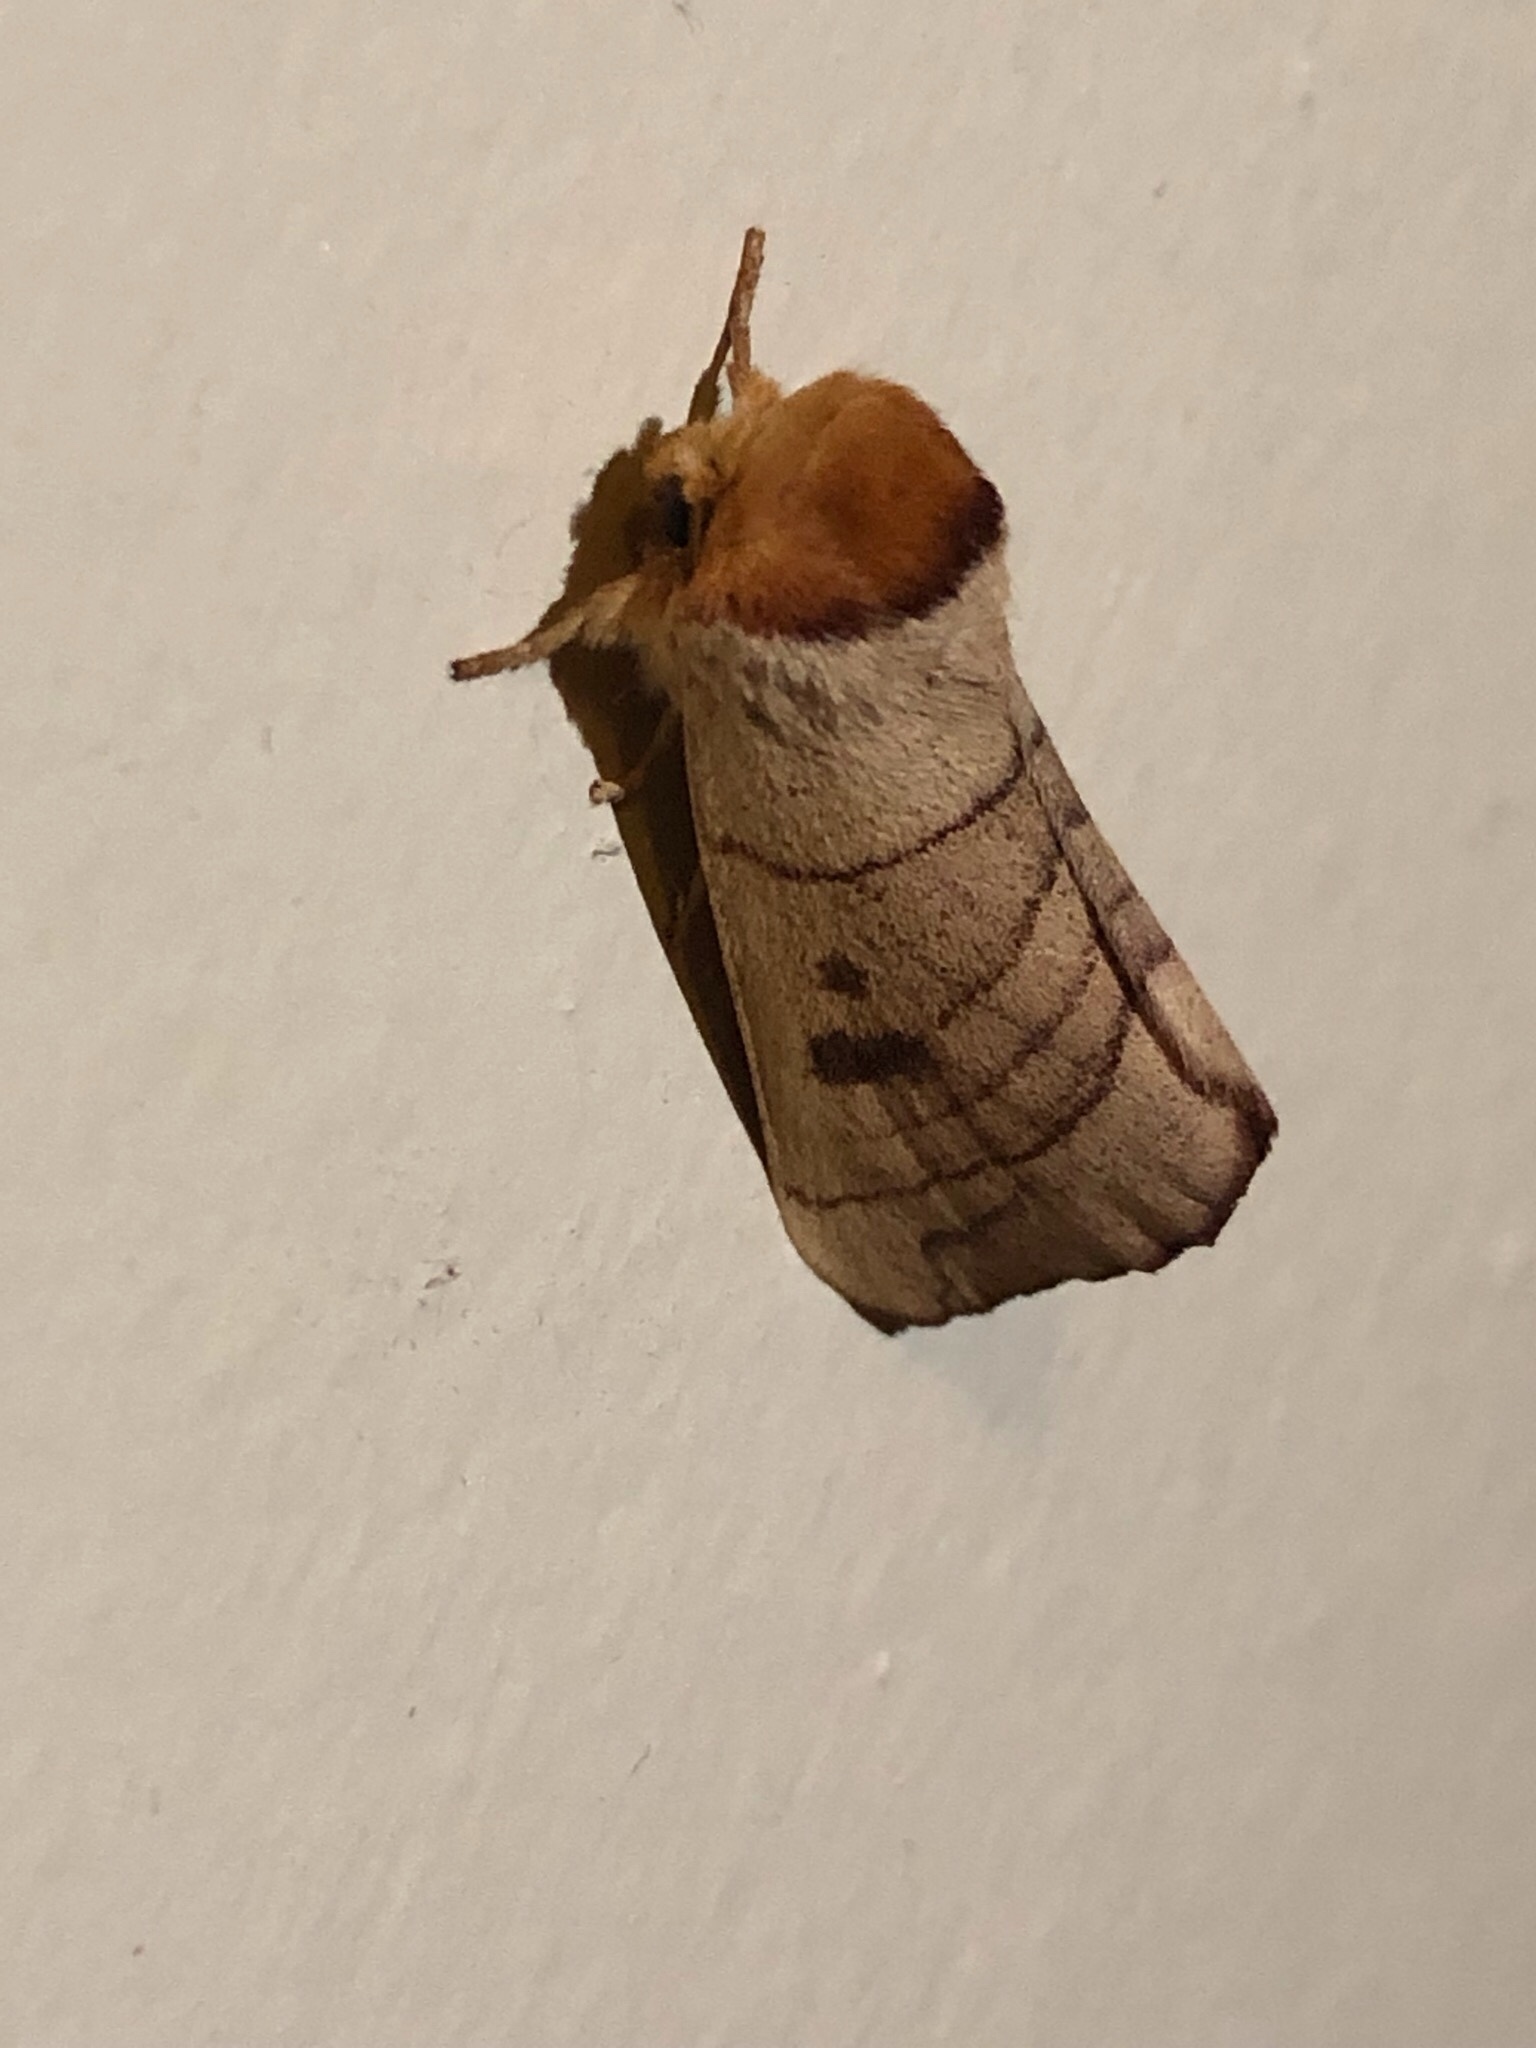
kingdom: Animalia
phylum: Arthropoda
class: Insecta
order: Lepidoptera
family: Notodontidae
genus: Datana
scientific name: Datana perspicua
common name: Spotted datana
